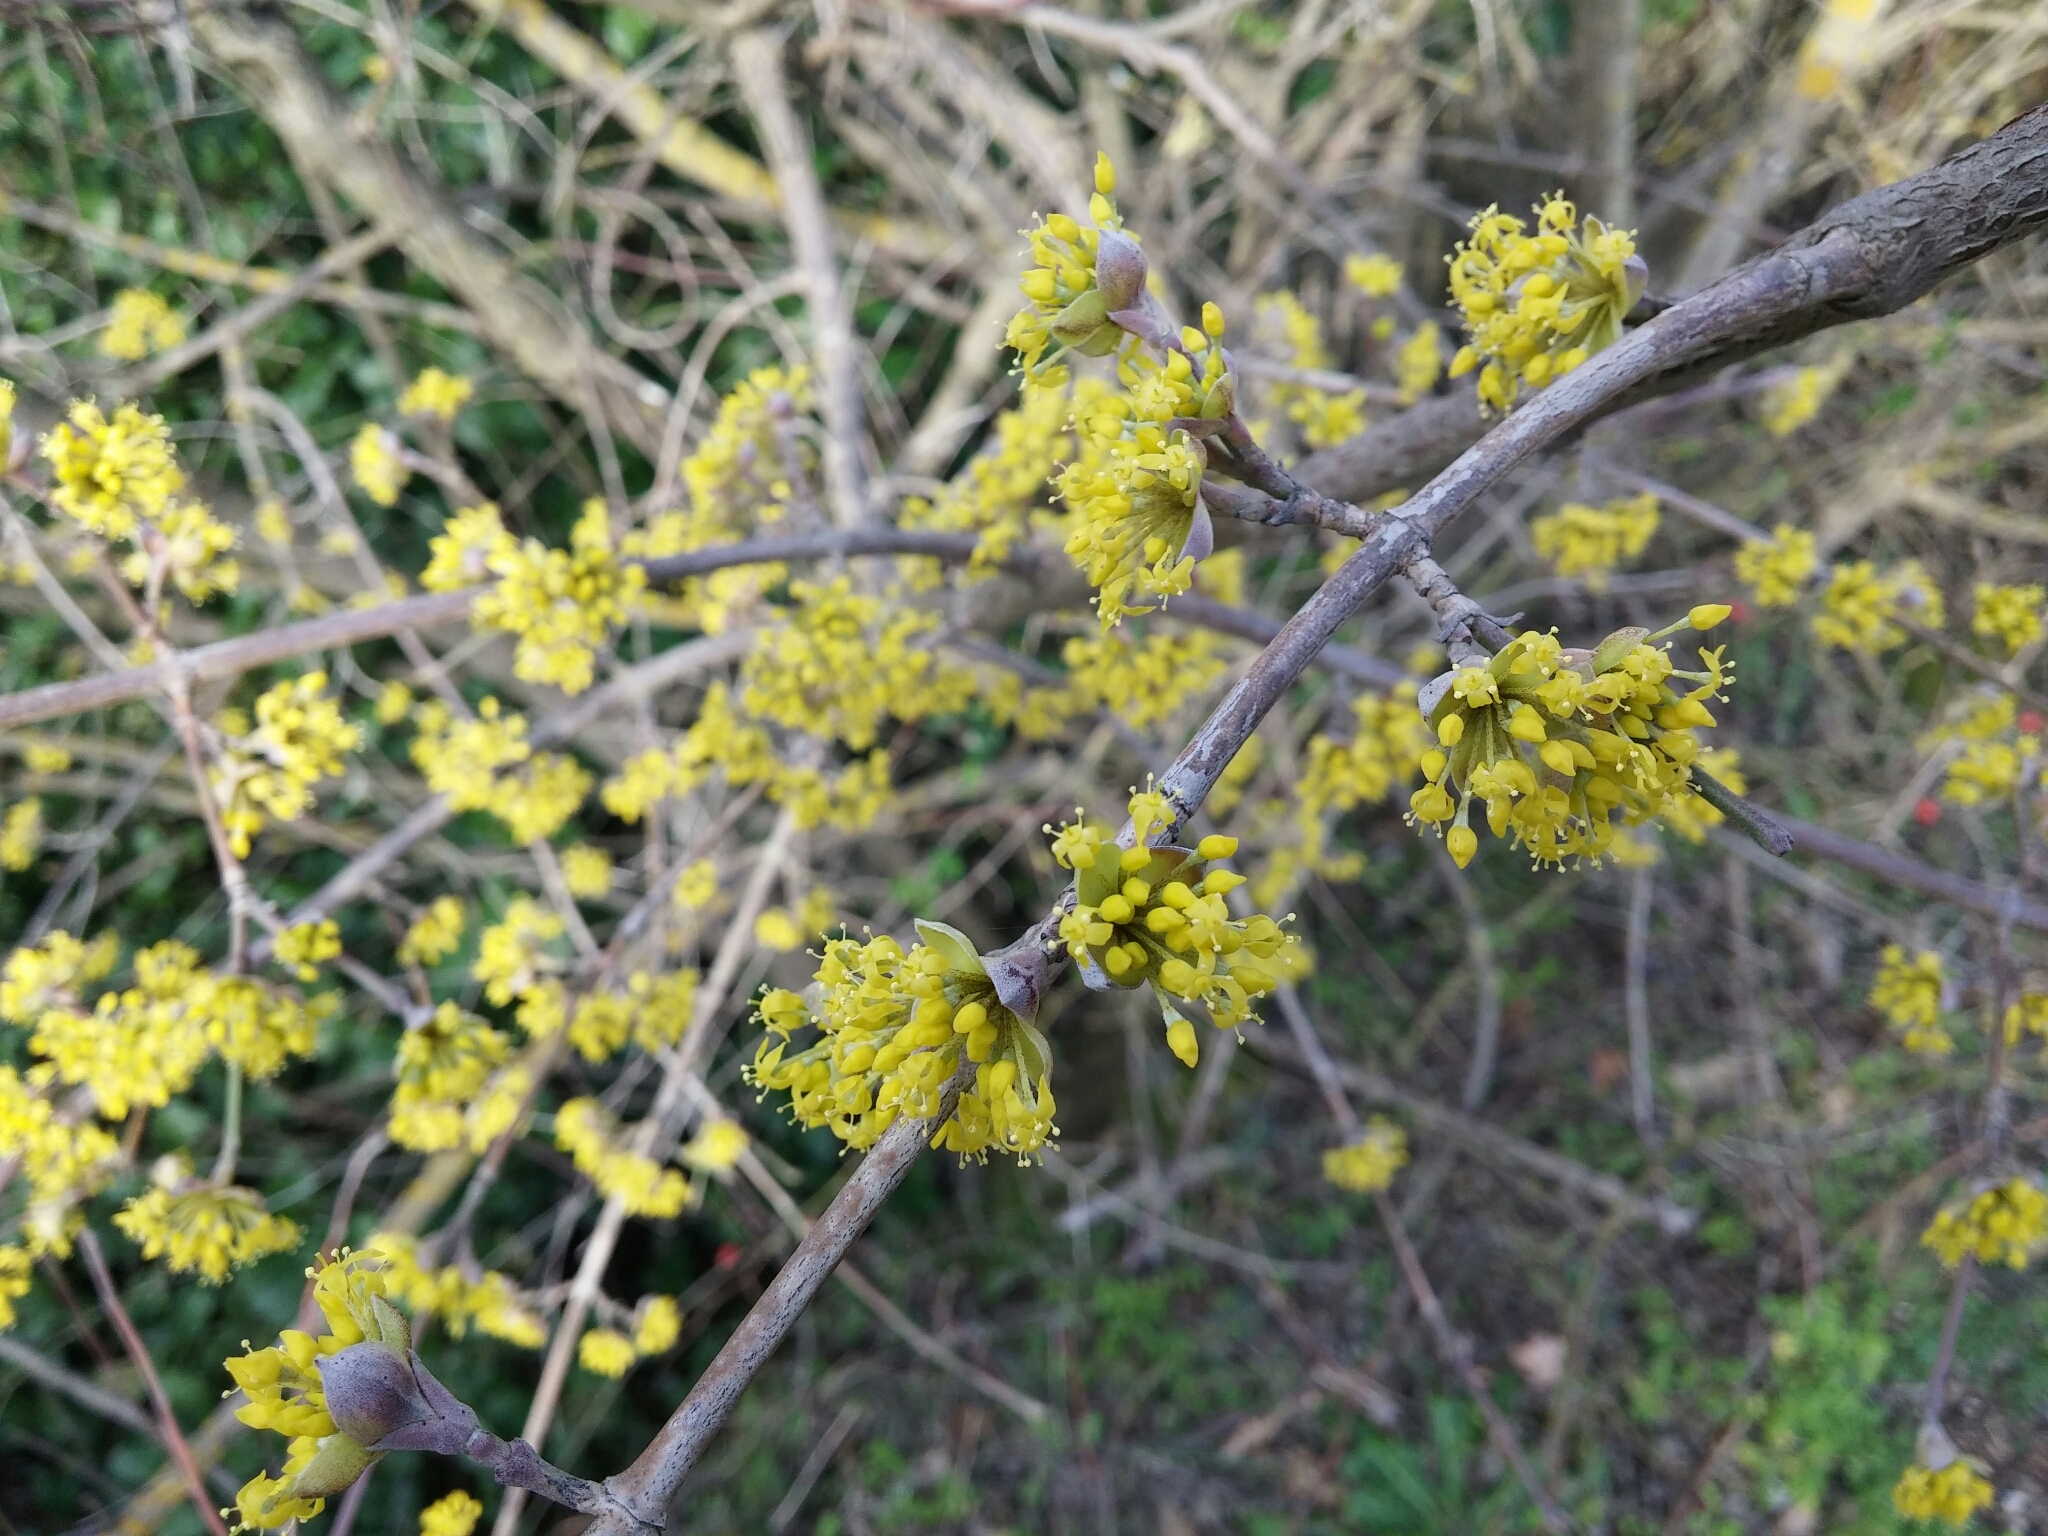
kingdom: Plantae
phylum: Tracheophyta
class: Magnoliopsida
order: Cornales
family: Cornaceae
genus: Cornus
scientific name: Cornus mas
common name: Cornelian-cherry
